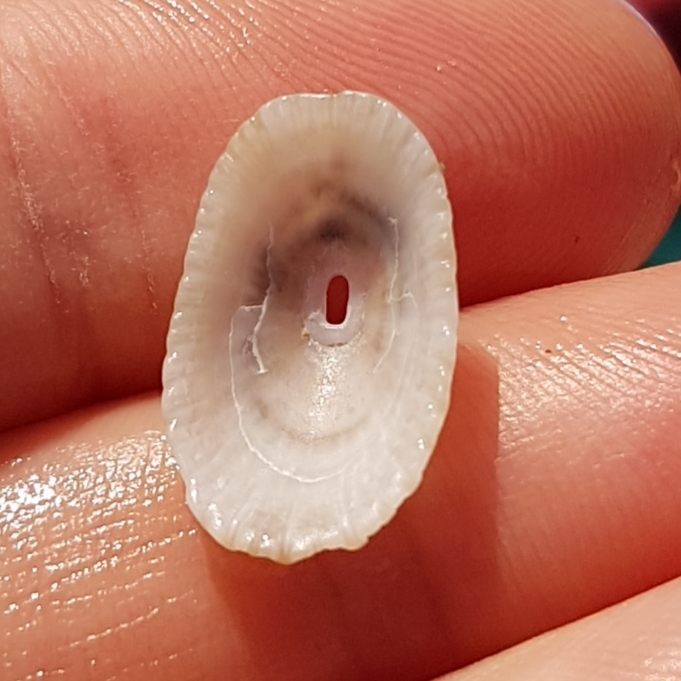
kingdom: Animalia
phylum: Mollusca
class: Gastropoda
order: Lepetellida
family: Fissurellidae
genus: Diodora
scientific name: Diodora graeca
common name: Common keyhole limpet
